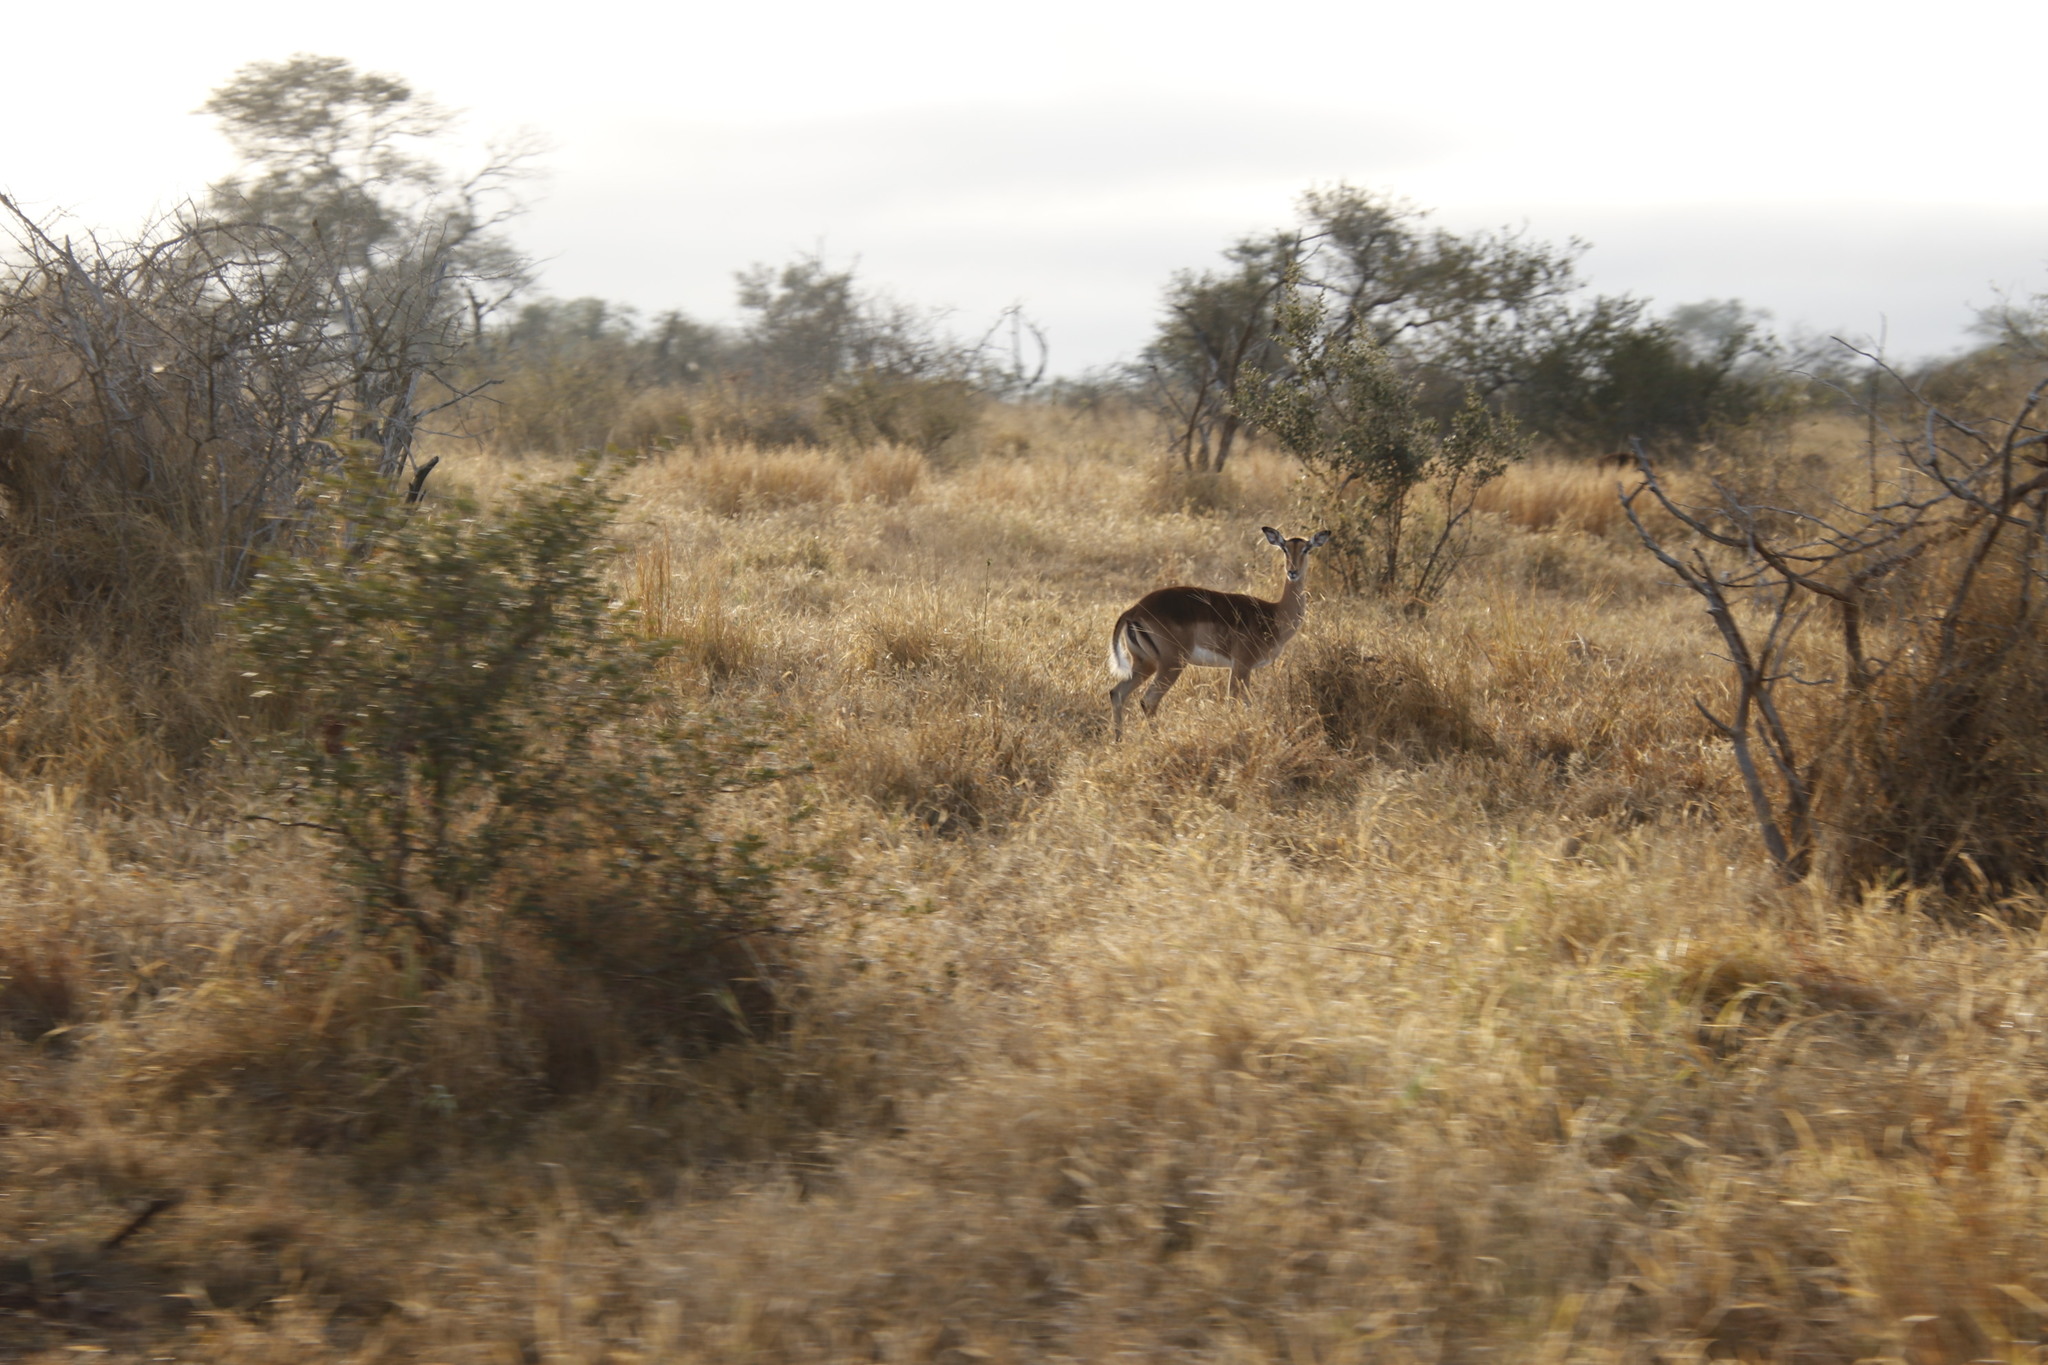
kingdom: Animalia
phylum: Chordata
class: Mammalia
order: Artiodactyla
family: Bovidae
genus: Aepyceros
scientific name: Aepyceros melampus
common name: Impala
